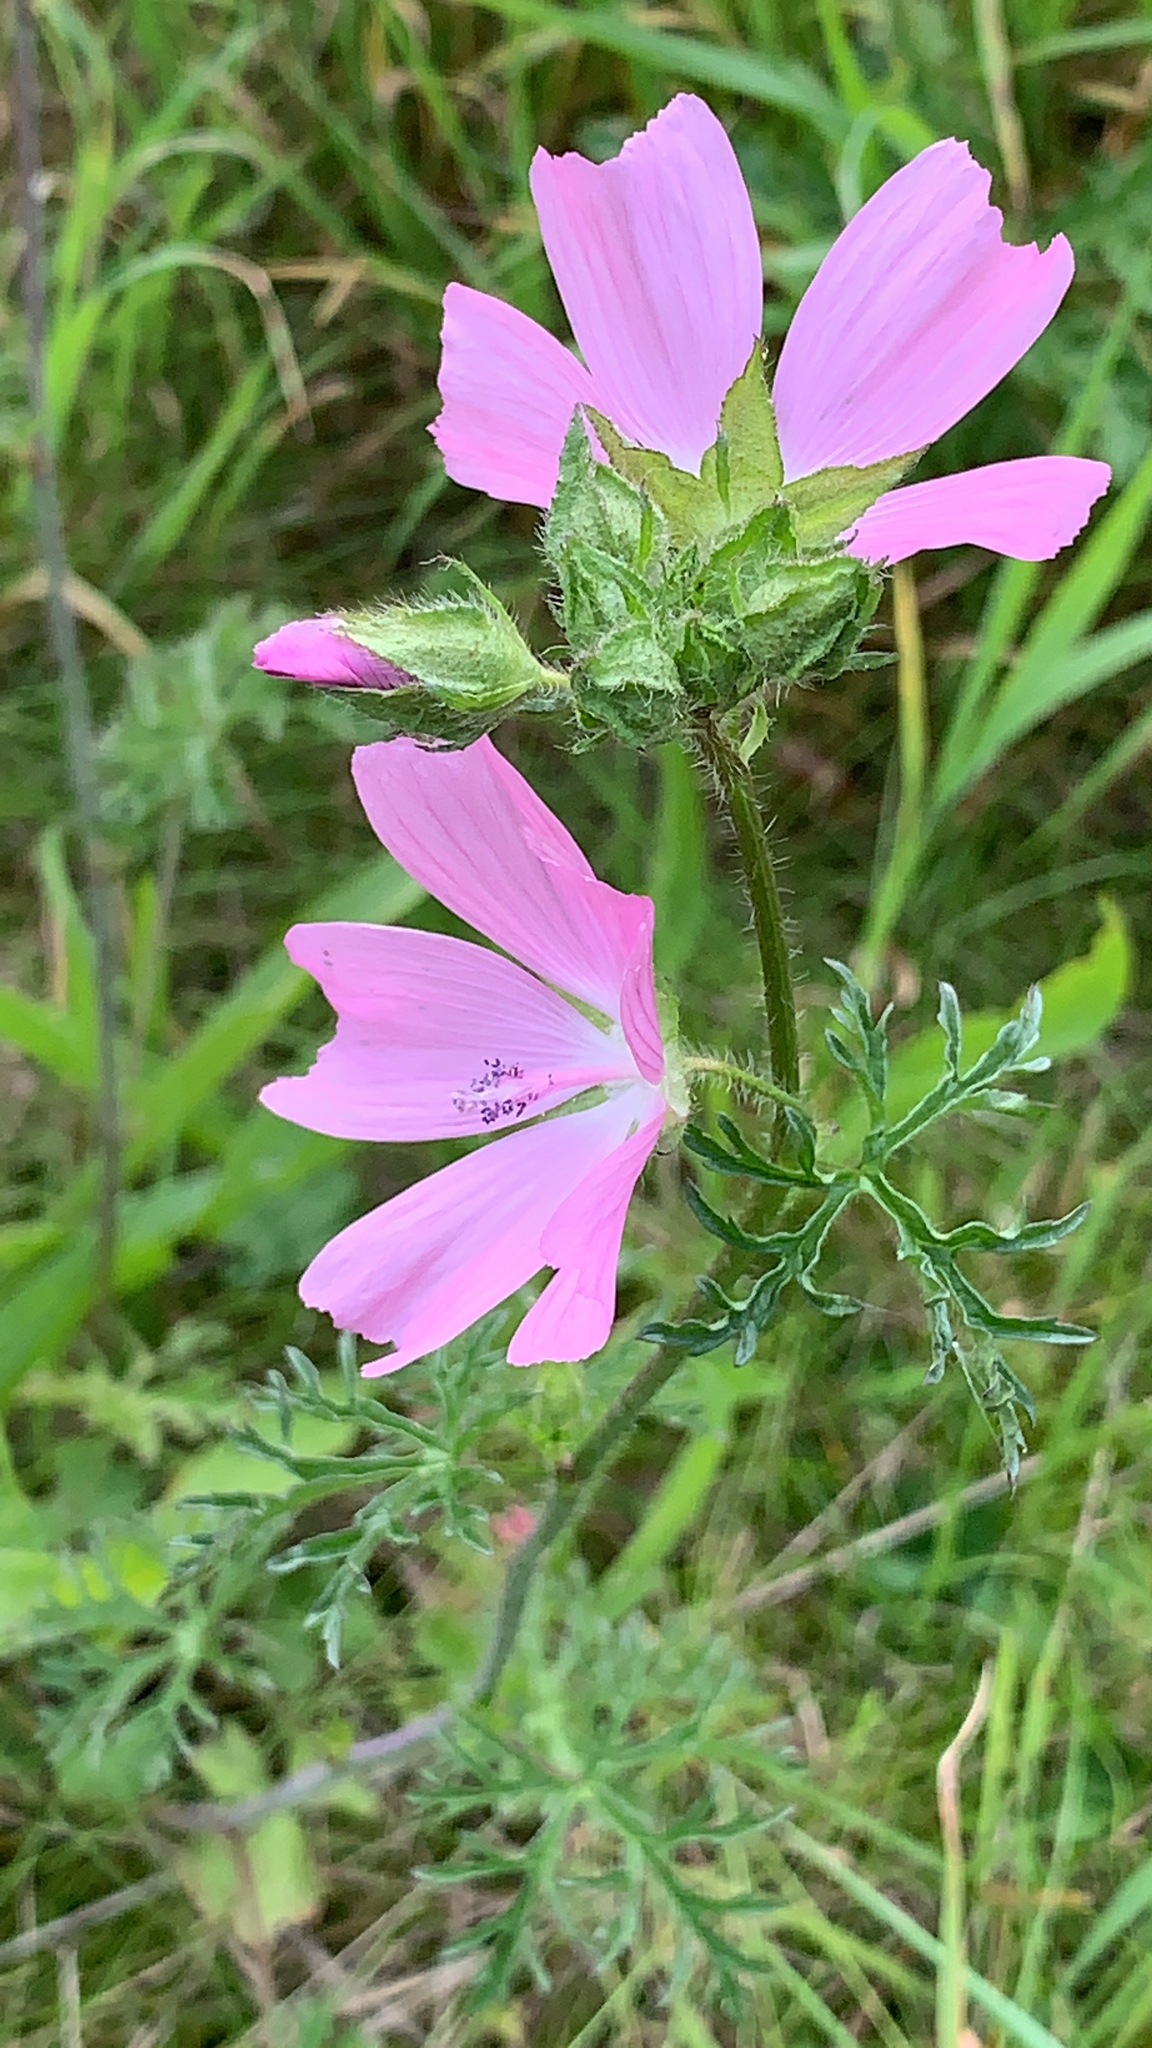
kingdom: Plantae
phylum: Tracheophyta
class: Magnoliopsida
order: Malvales
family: Malvaceae
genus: Malva
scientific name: Malva moschata
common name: Musk mallow
